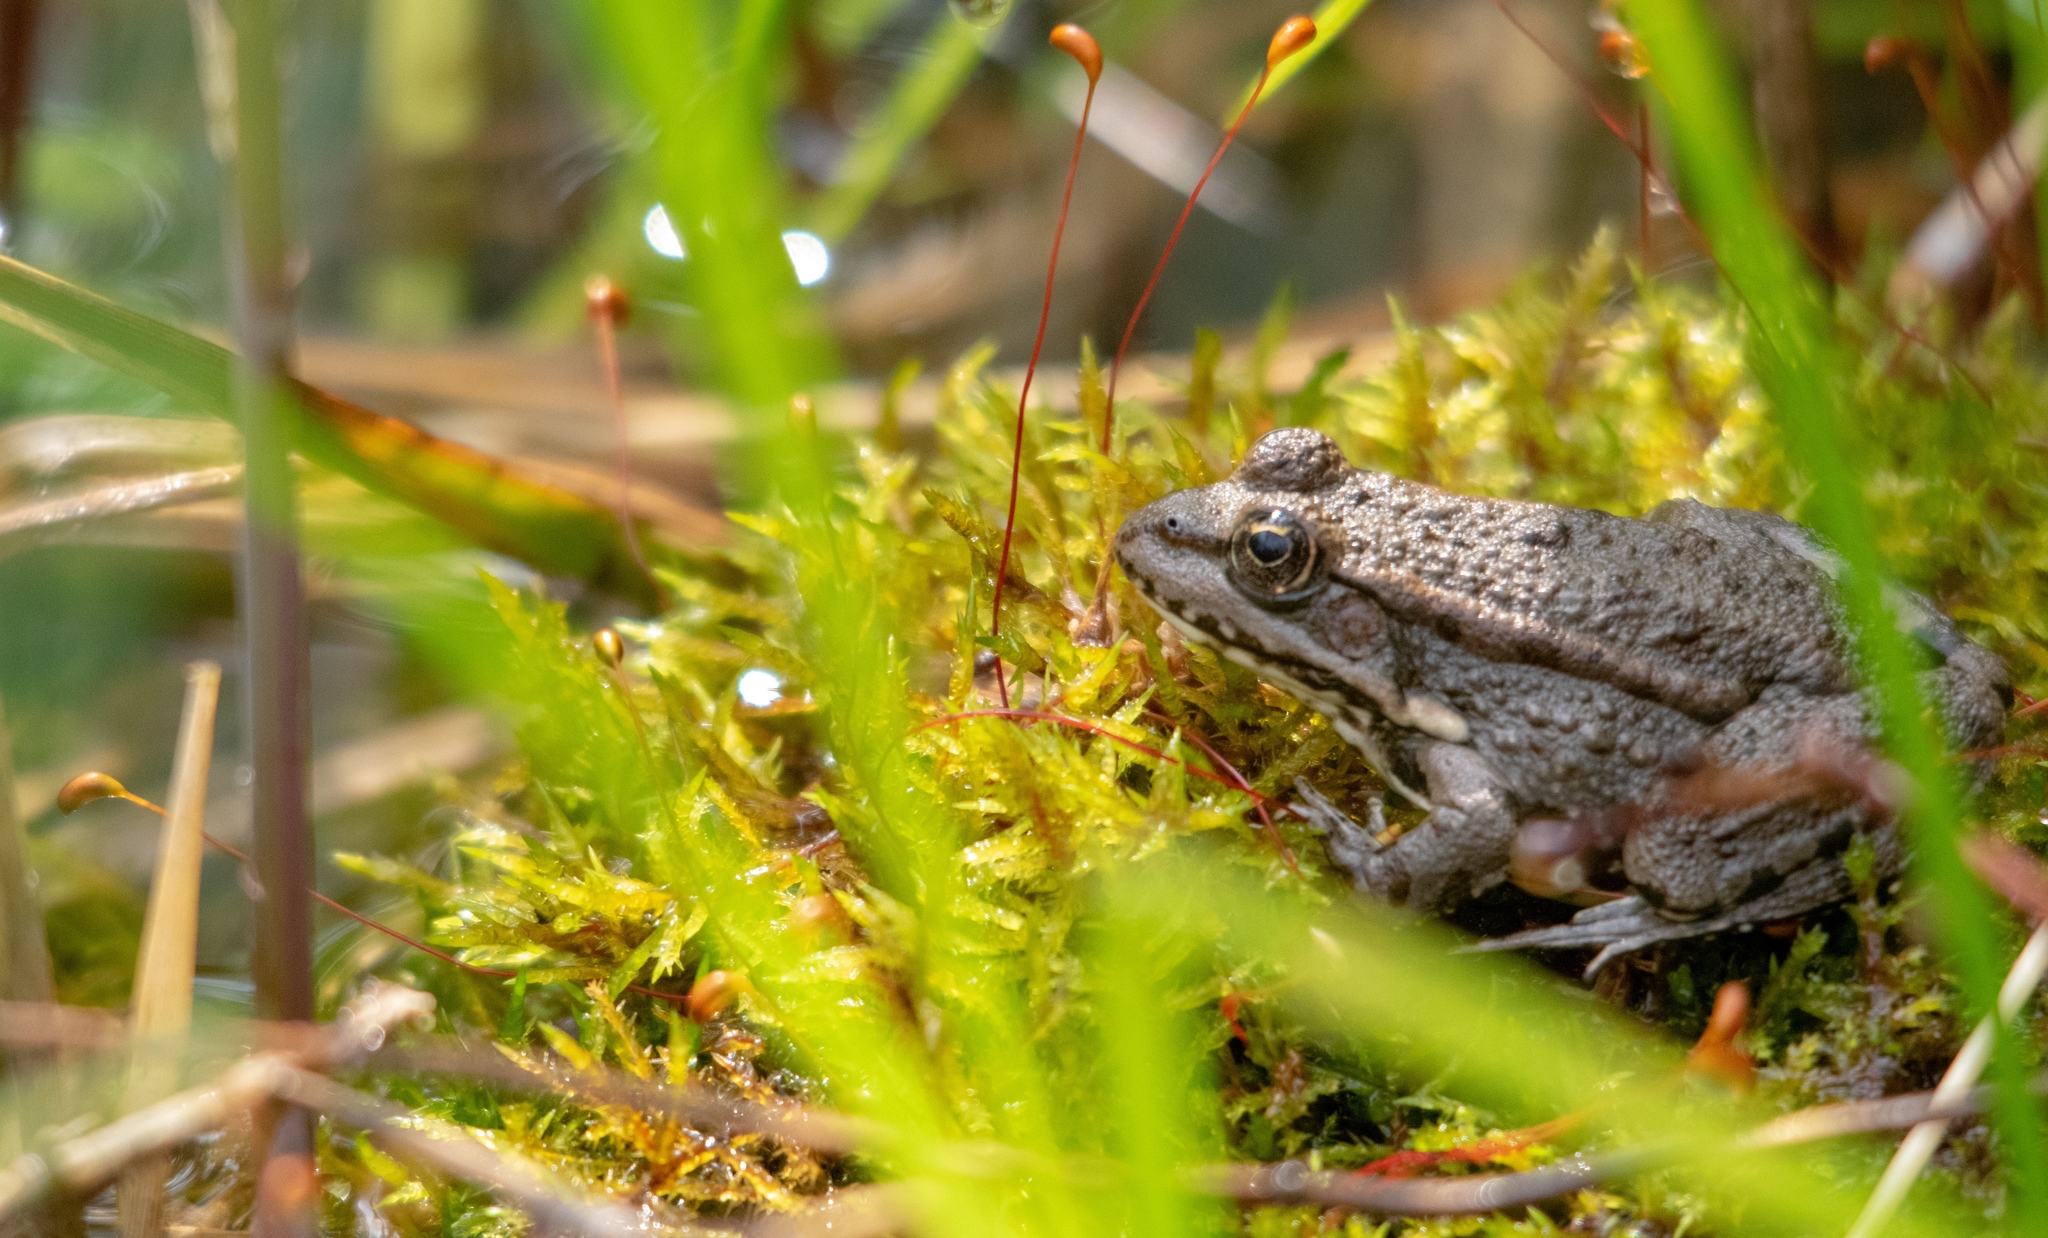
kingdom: Animalia
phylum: Chordata
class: Amphibia
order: Anura
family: Ranidae
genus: Pelophylax
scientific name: Pelophylax
